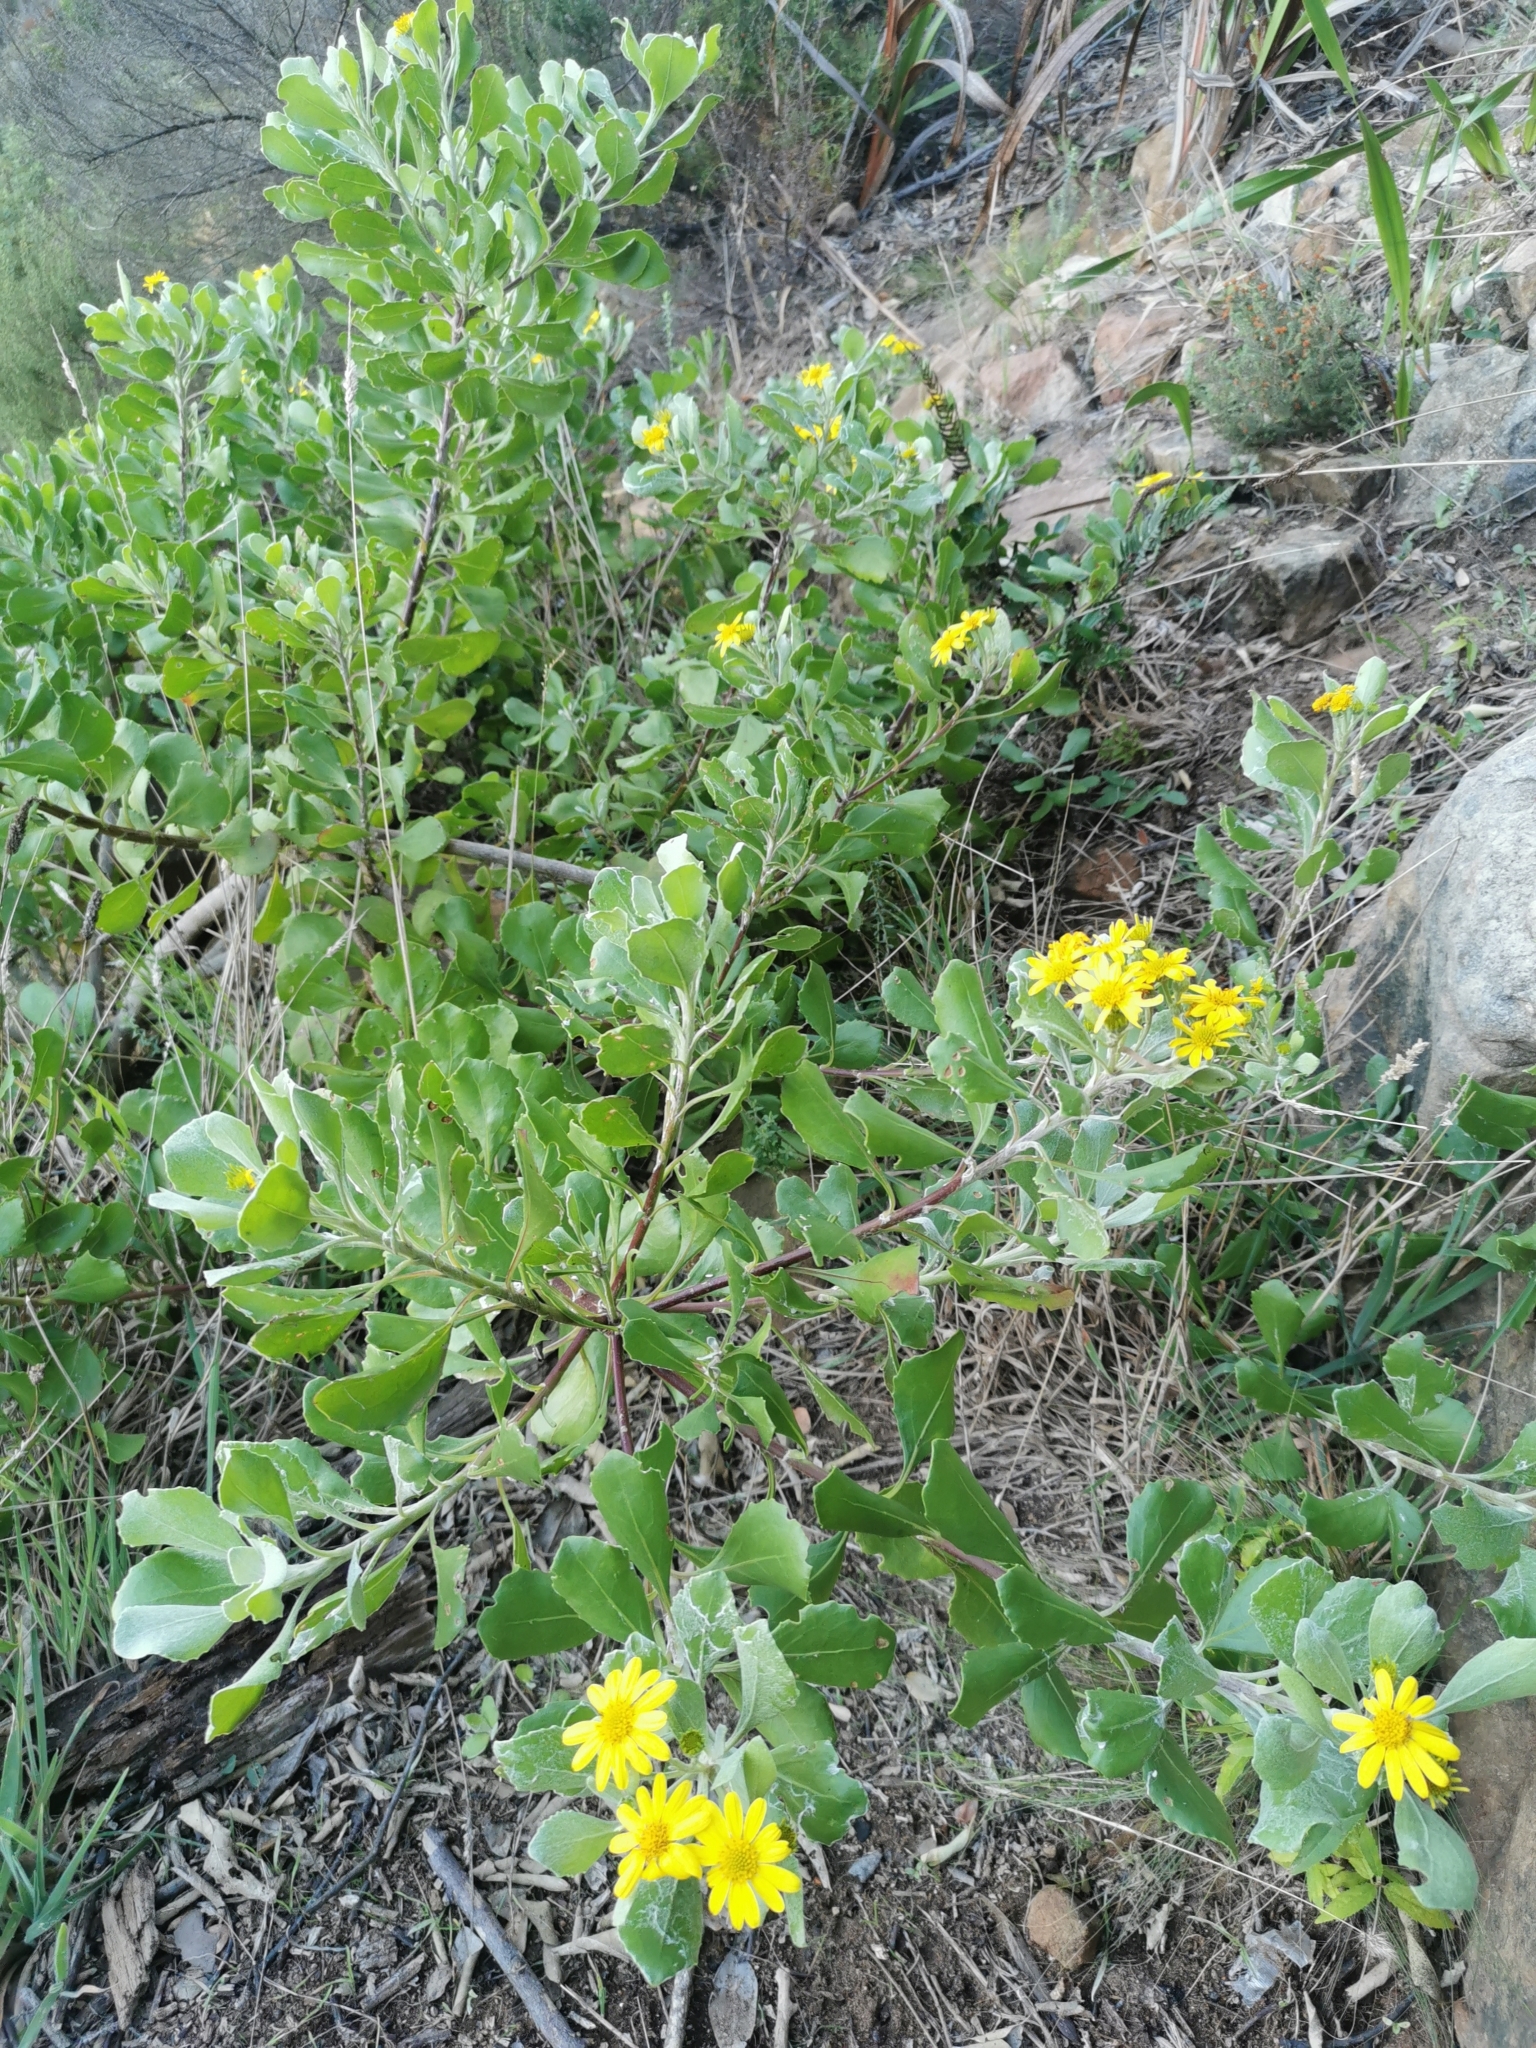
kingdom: Plantae
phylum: Tracheophyta
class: Magnoliopsida
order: Asterales
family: Asteraceae
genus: Osteospermum
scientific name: Osteospermum moniliferum
